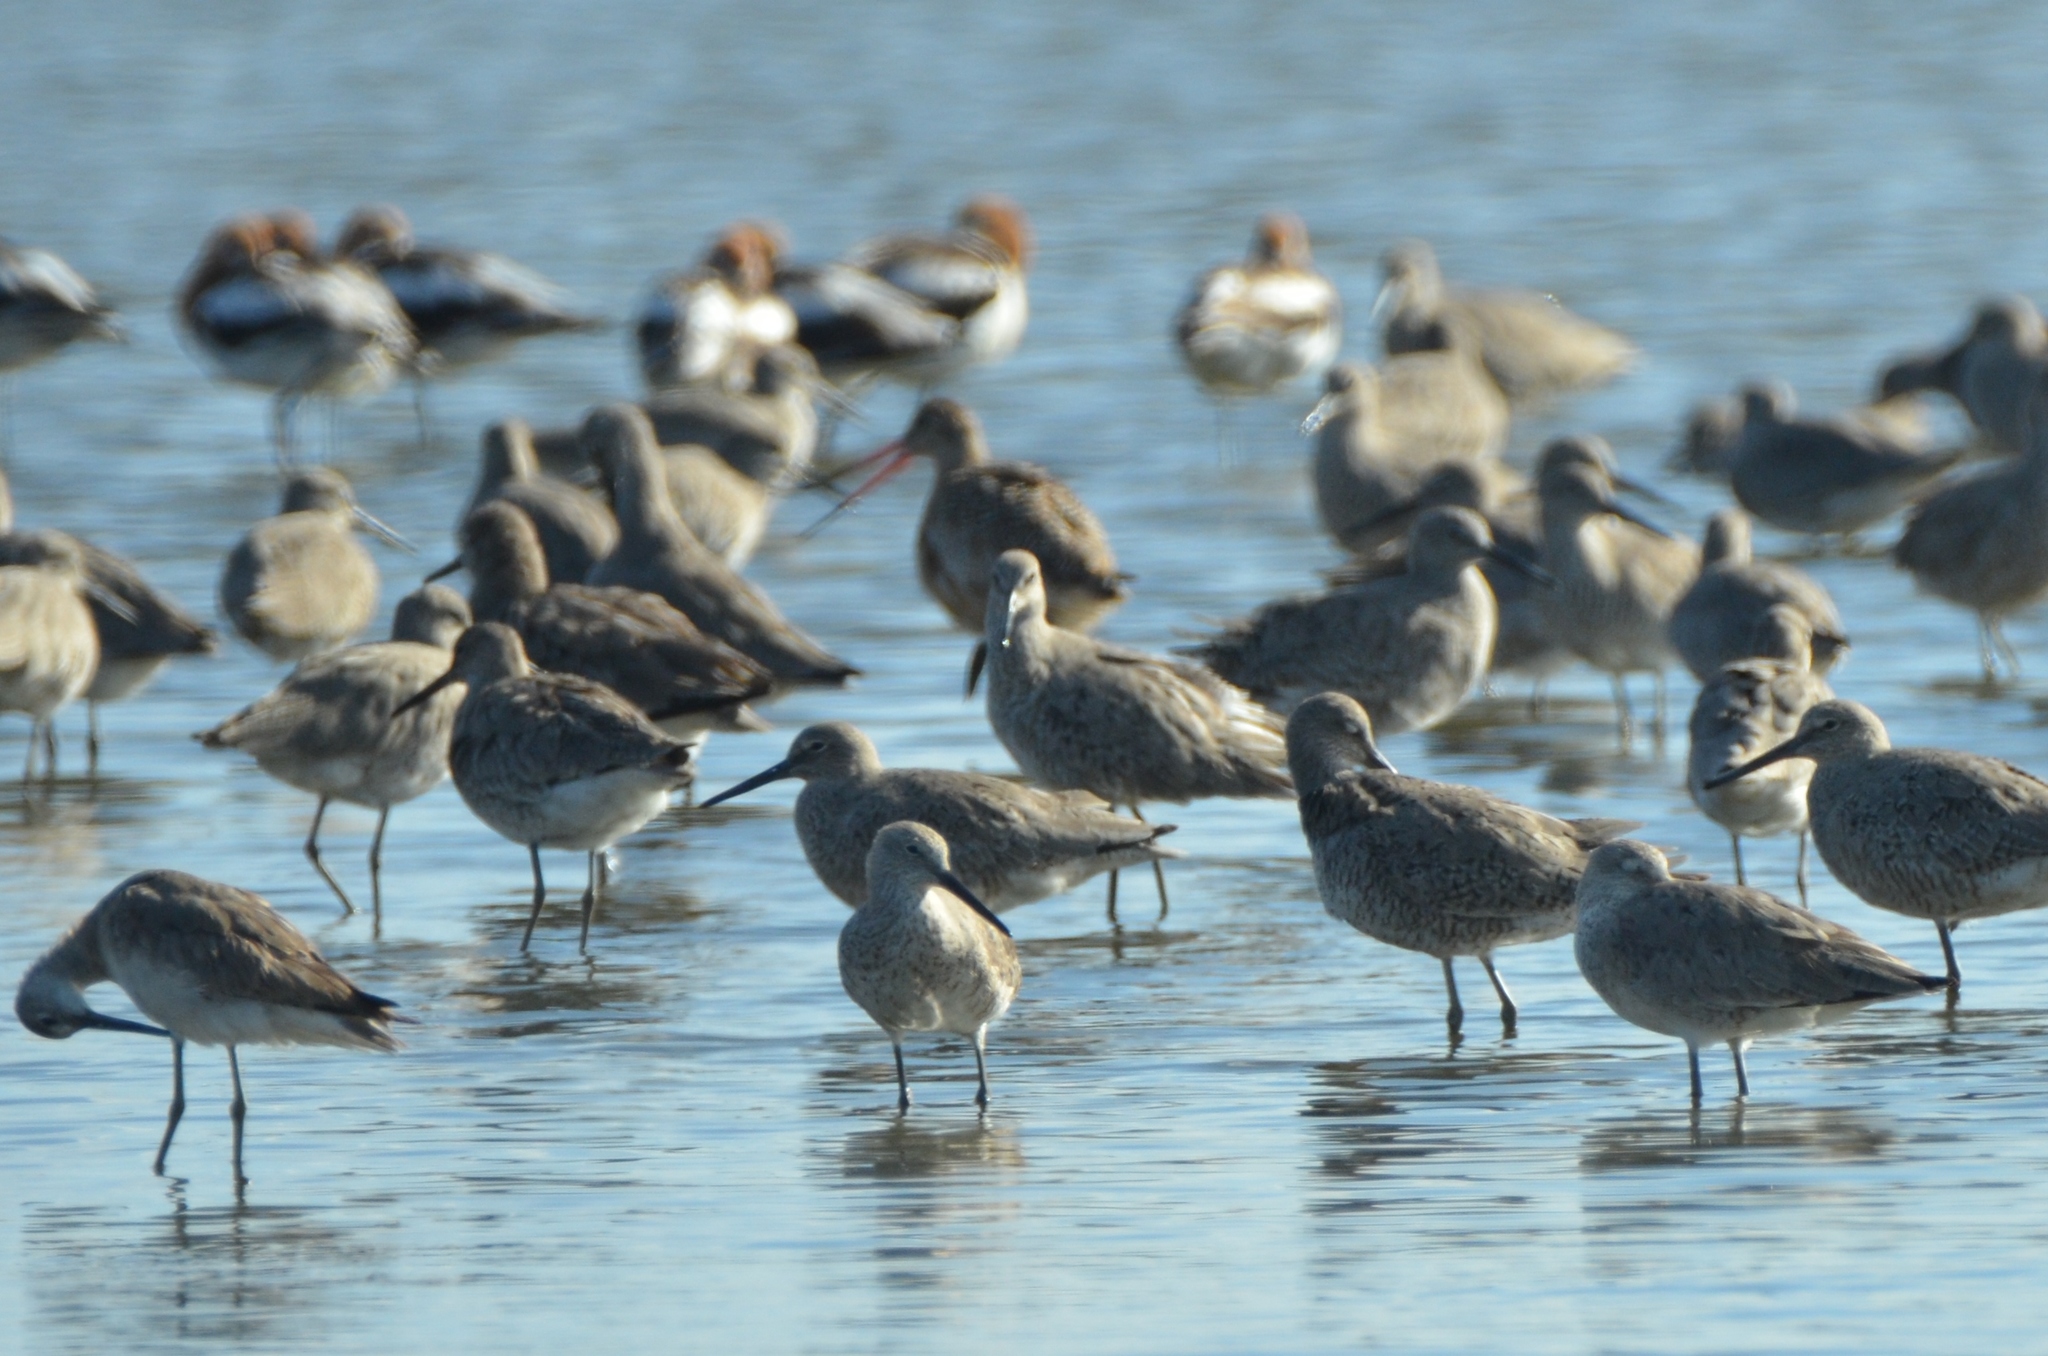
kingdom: Animalia
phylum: Chordata
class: Aves
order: Charadriiformes
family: Scolopacidae
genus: Limosa
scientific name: Limosa fedoa
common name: Marbled godwit
